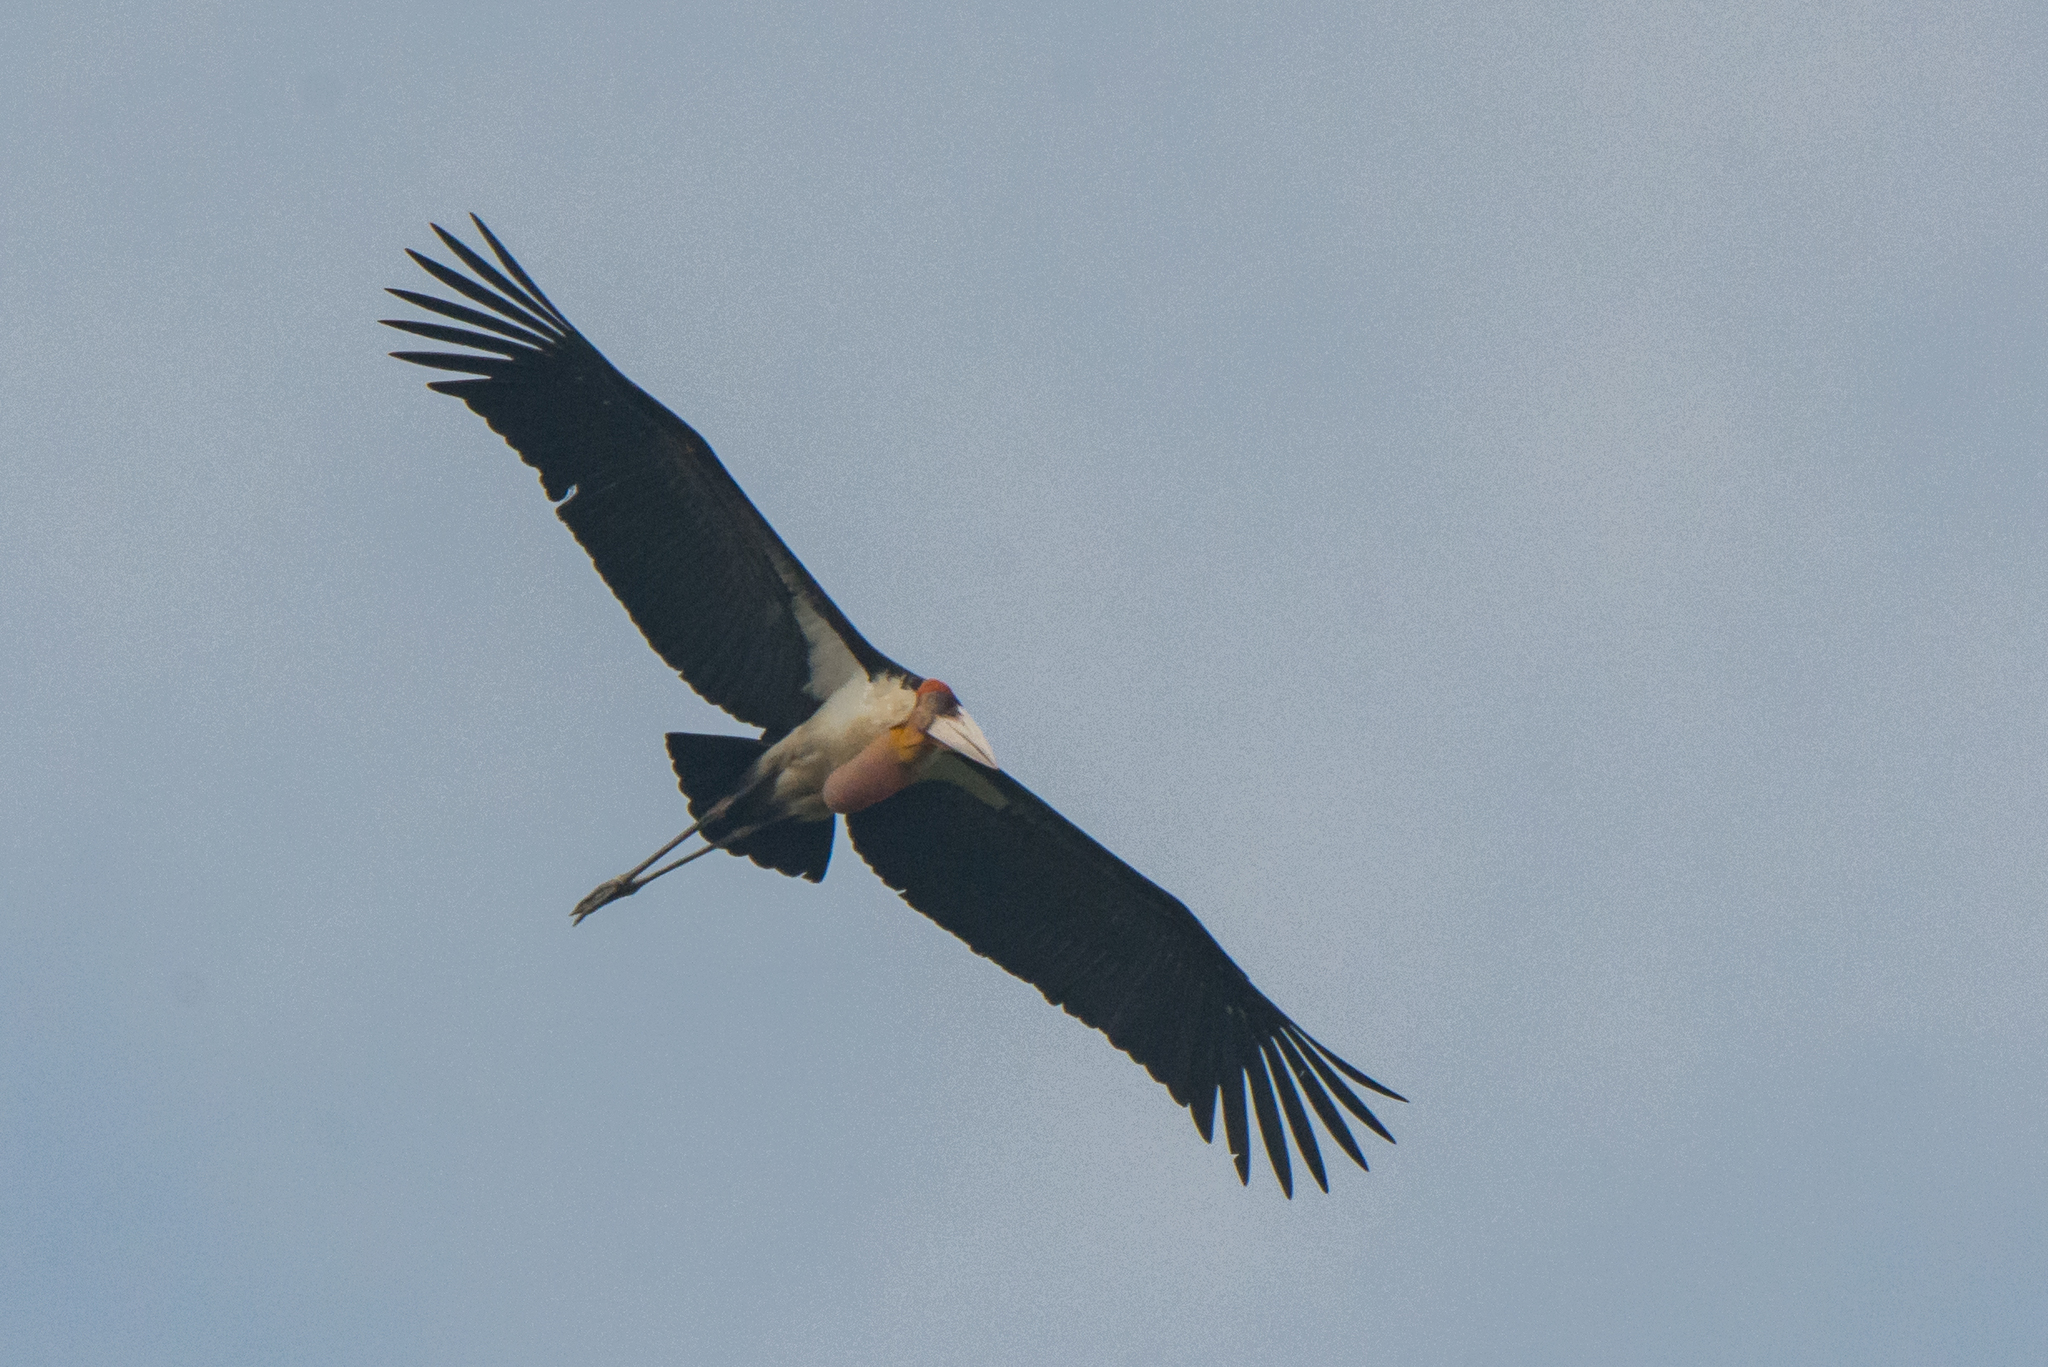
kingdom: Animalia
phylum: Chordata
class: Aves
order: Ciconiiformes
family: Ciconiidae
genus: Leptoptilos
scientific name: Leptoptilos dubius
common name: Greater adjutant
